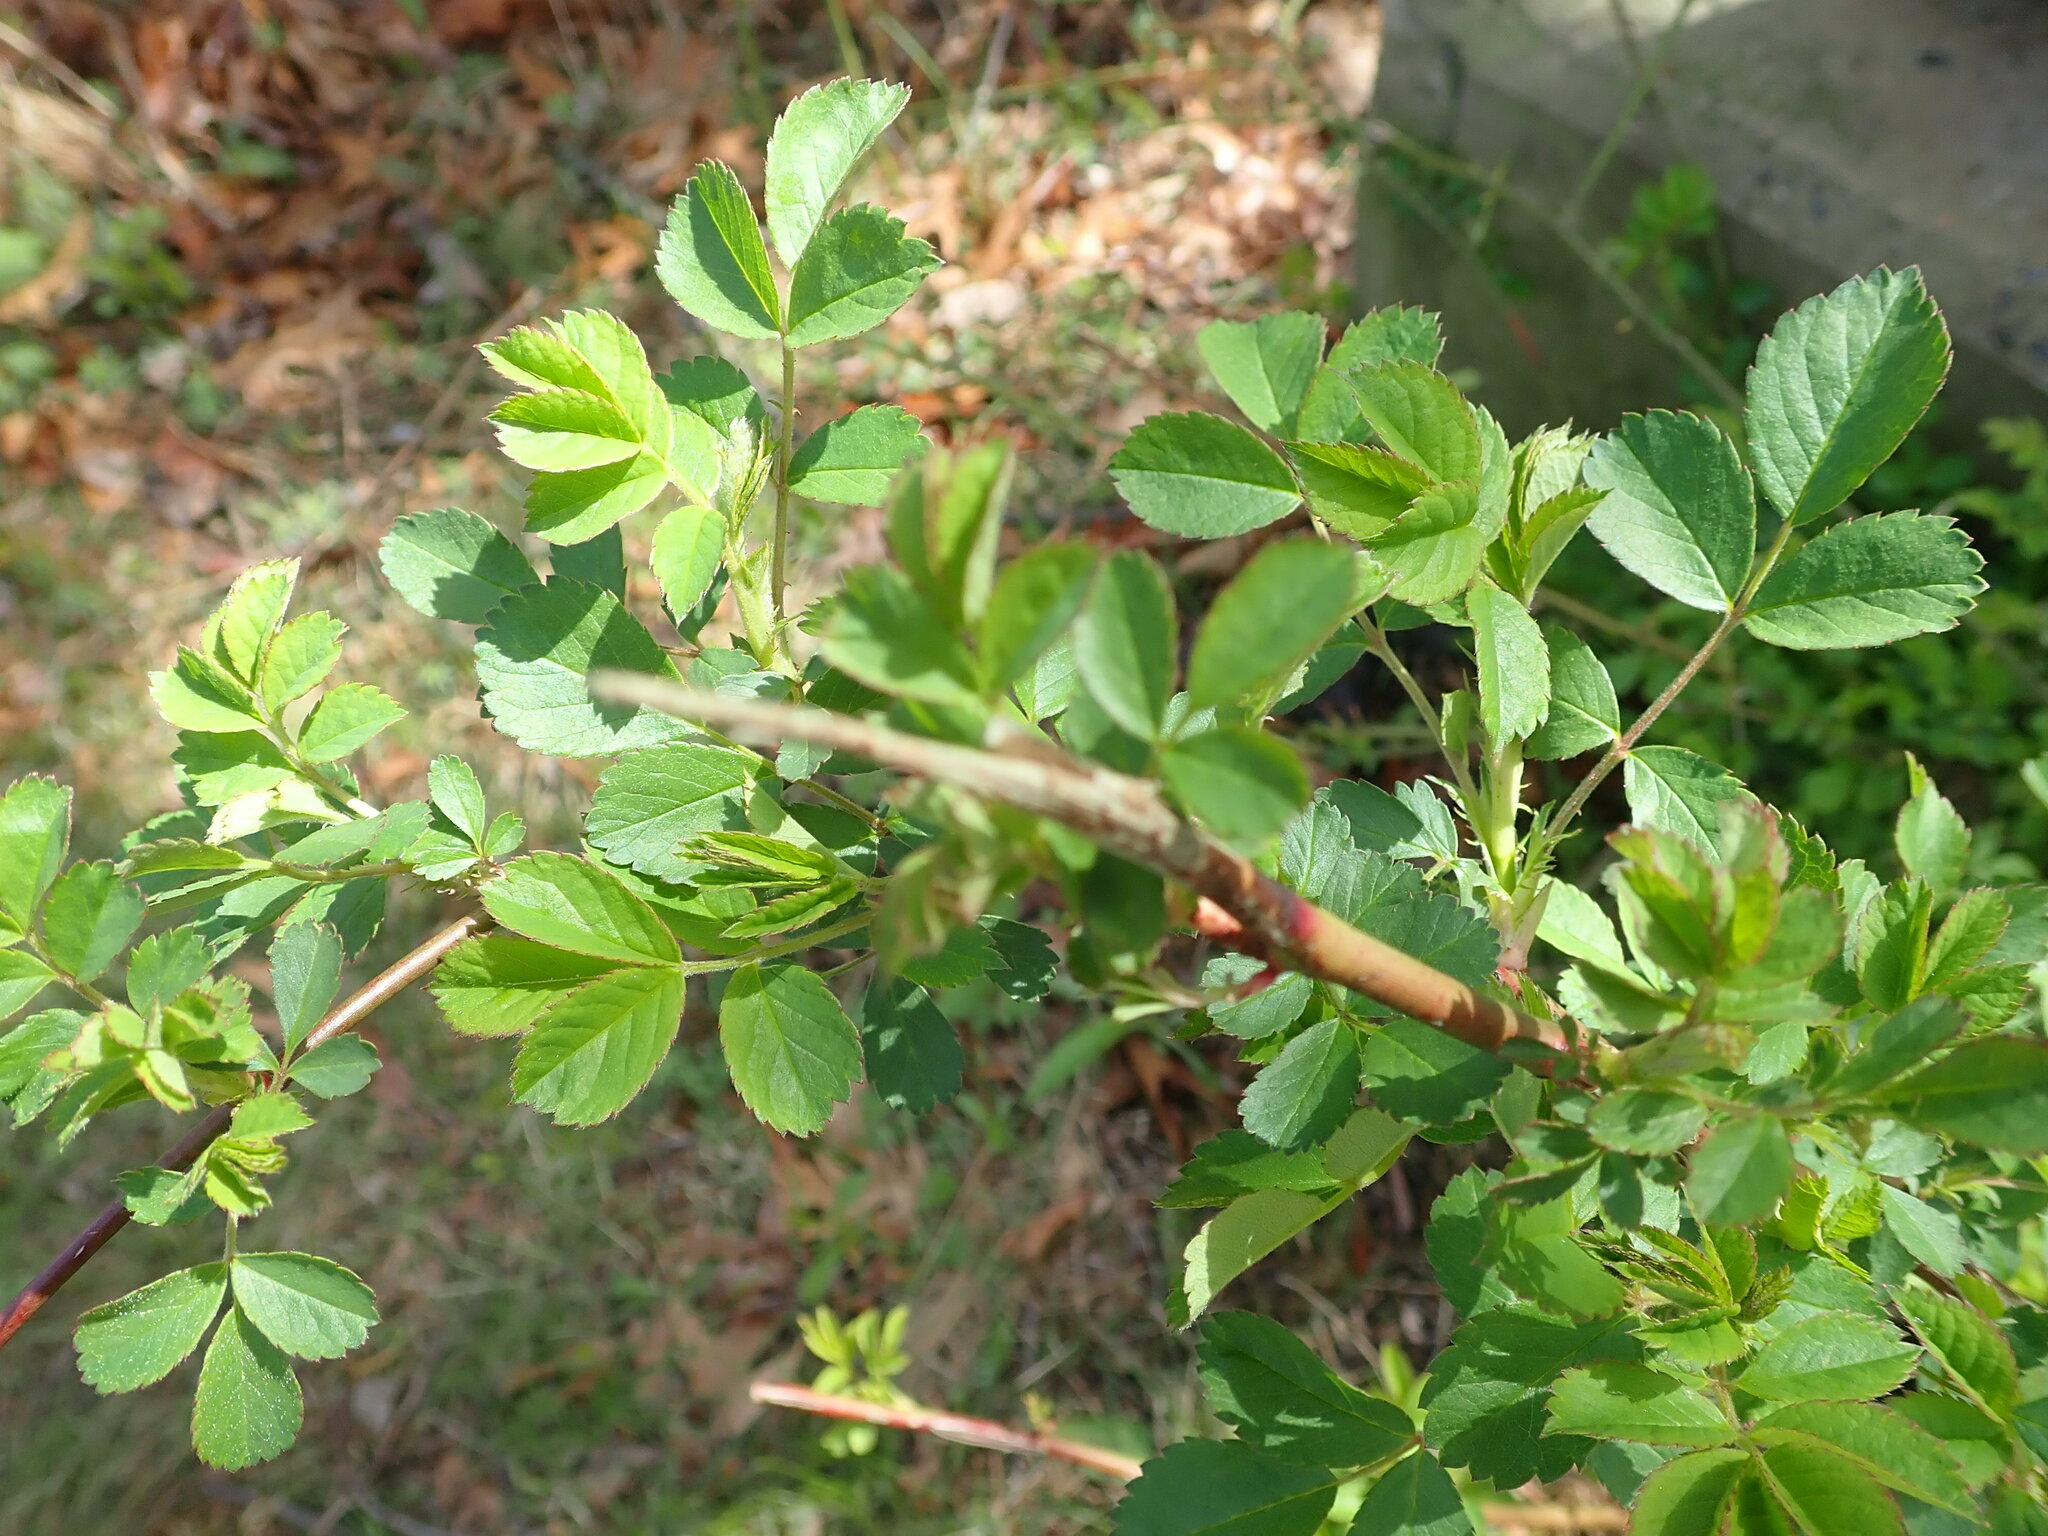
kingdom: Plantae
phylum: Tracheophyta
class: Magnoliopsida
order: Rosales
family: Rosaceae
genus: Rosa
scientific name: Rosa multiflora
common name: Multiflora rose
